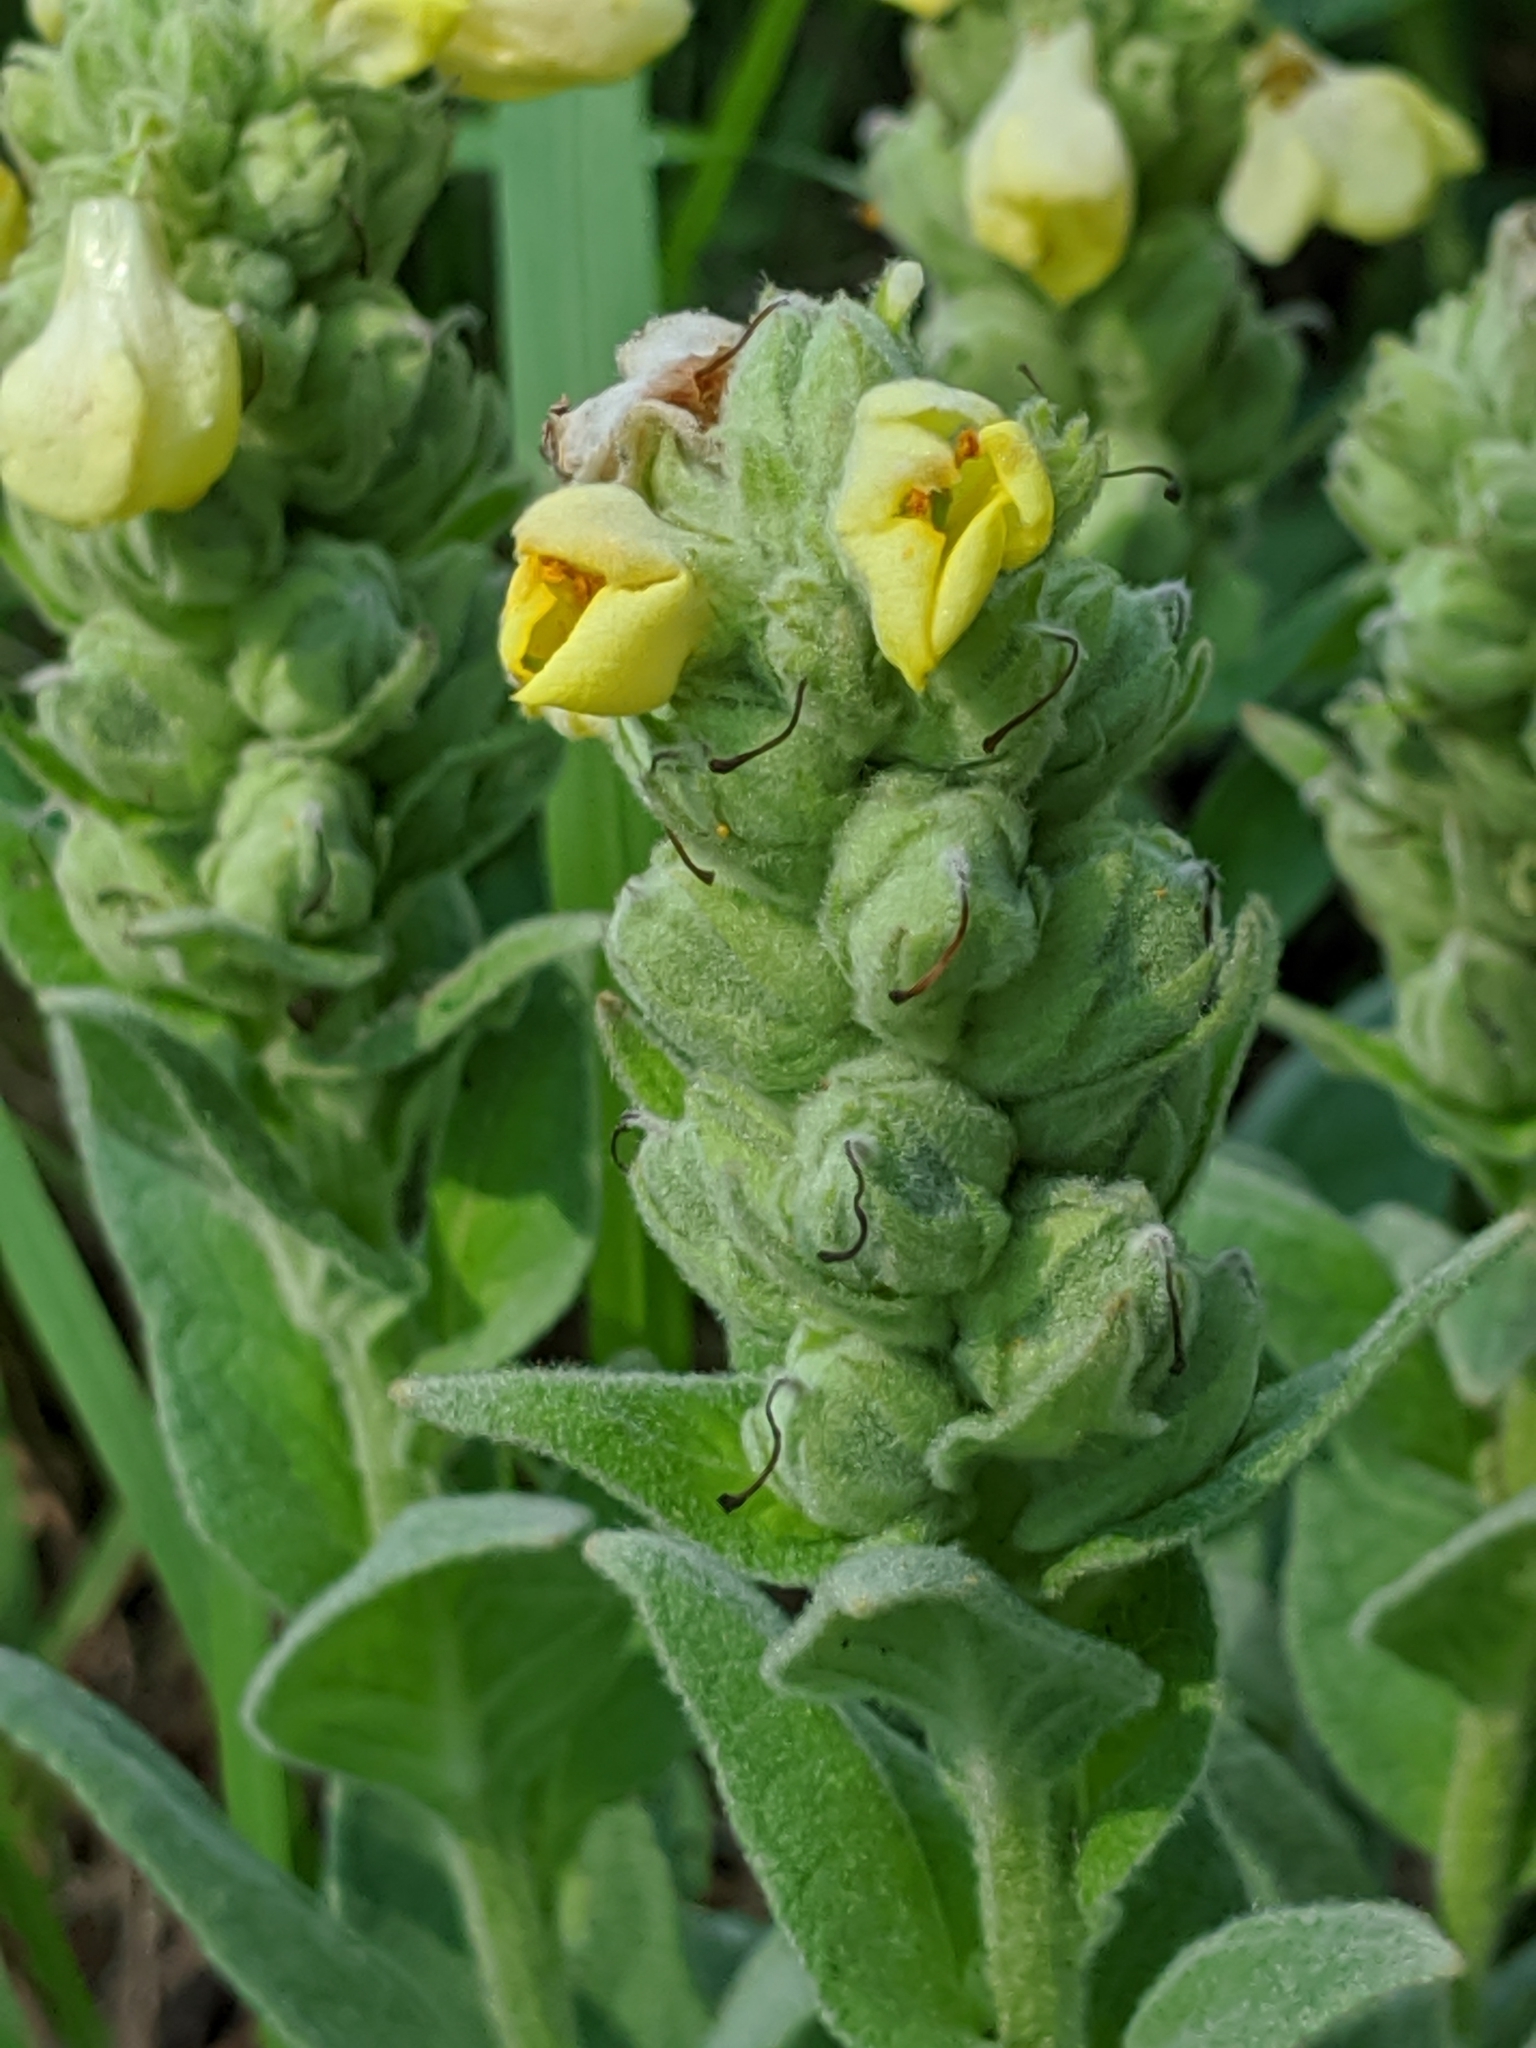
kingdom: Plantae
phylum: Tracheophyta
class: Magnoliopsida
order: Lamiales
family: Scrophulariaceae
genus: Verbascum
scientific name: Verbascum thapsus
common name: Common mullein
